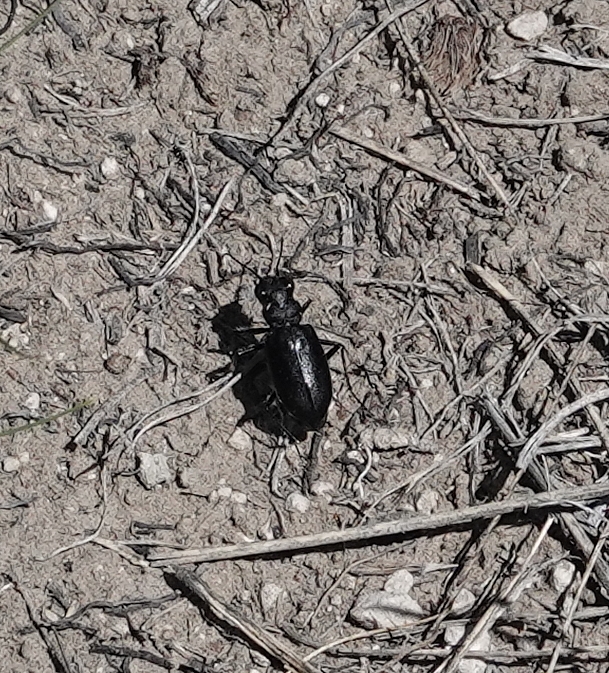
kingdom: Animalia
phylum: Arthropoda
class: Insecta
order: Coleoptera
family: Carabidae
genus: Cicindela
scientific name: Cicindela nebraskana
